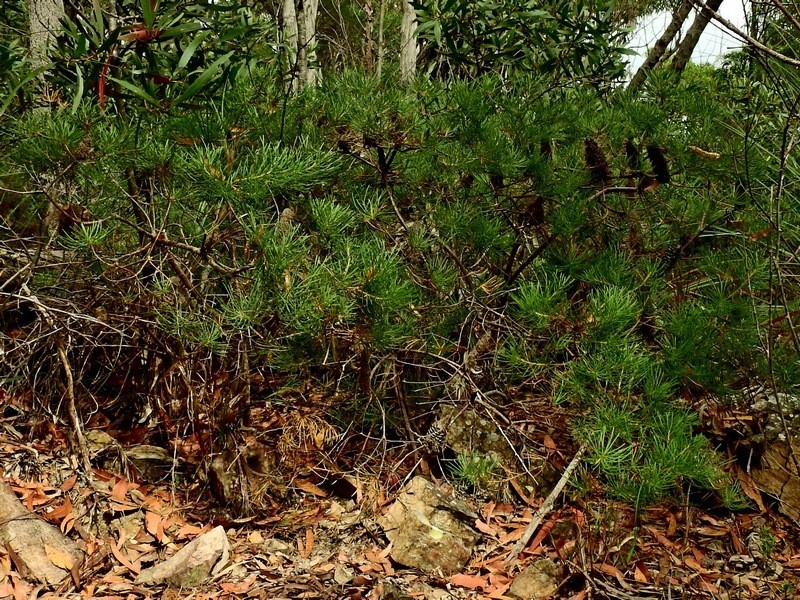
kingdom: Plantae
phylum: Tracheophyta
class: Magnoliopsida
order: Proteales
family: Proteaceae
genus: Banksia
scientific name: Banksia spinulosa
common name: Hairpin banksia
